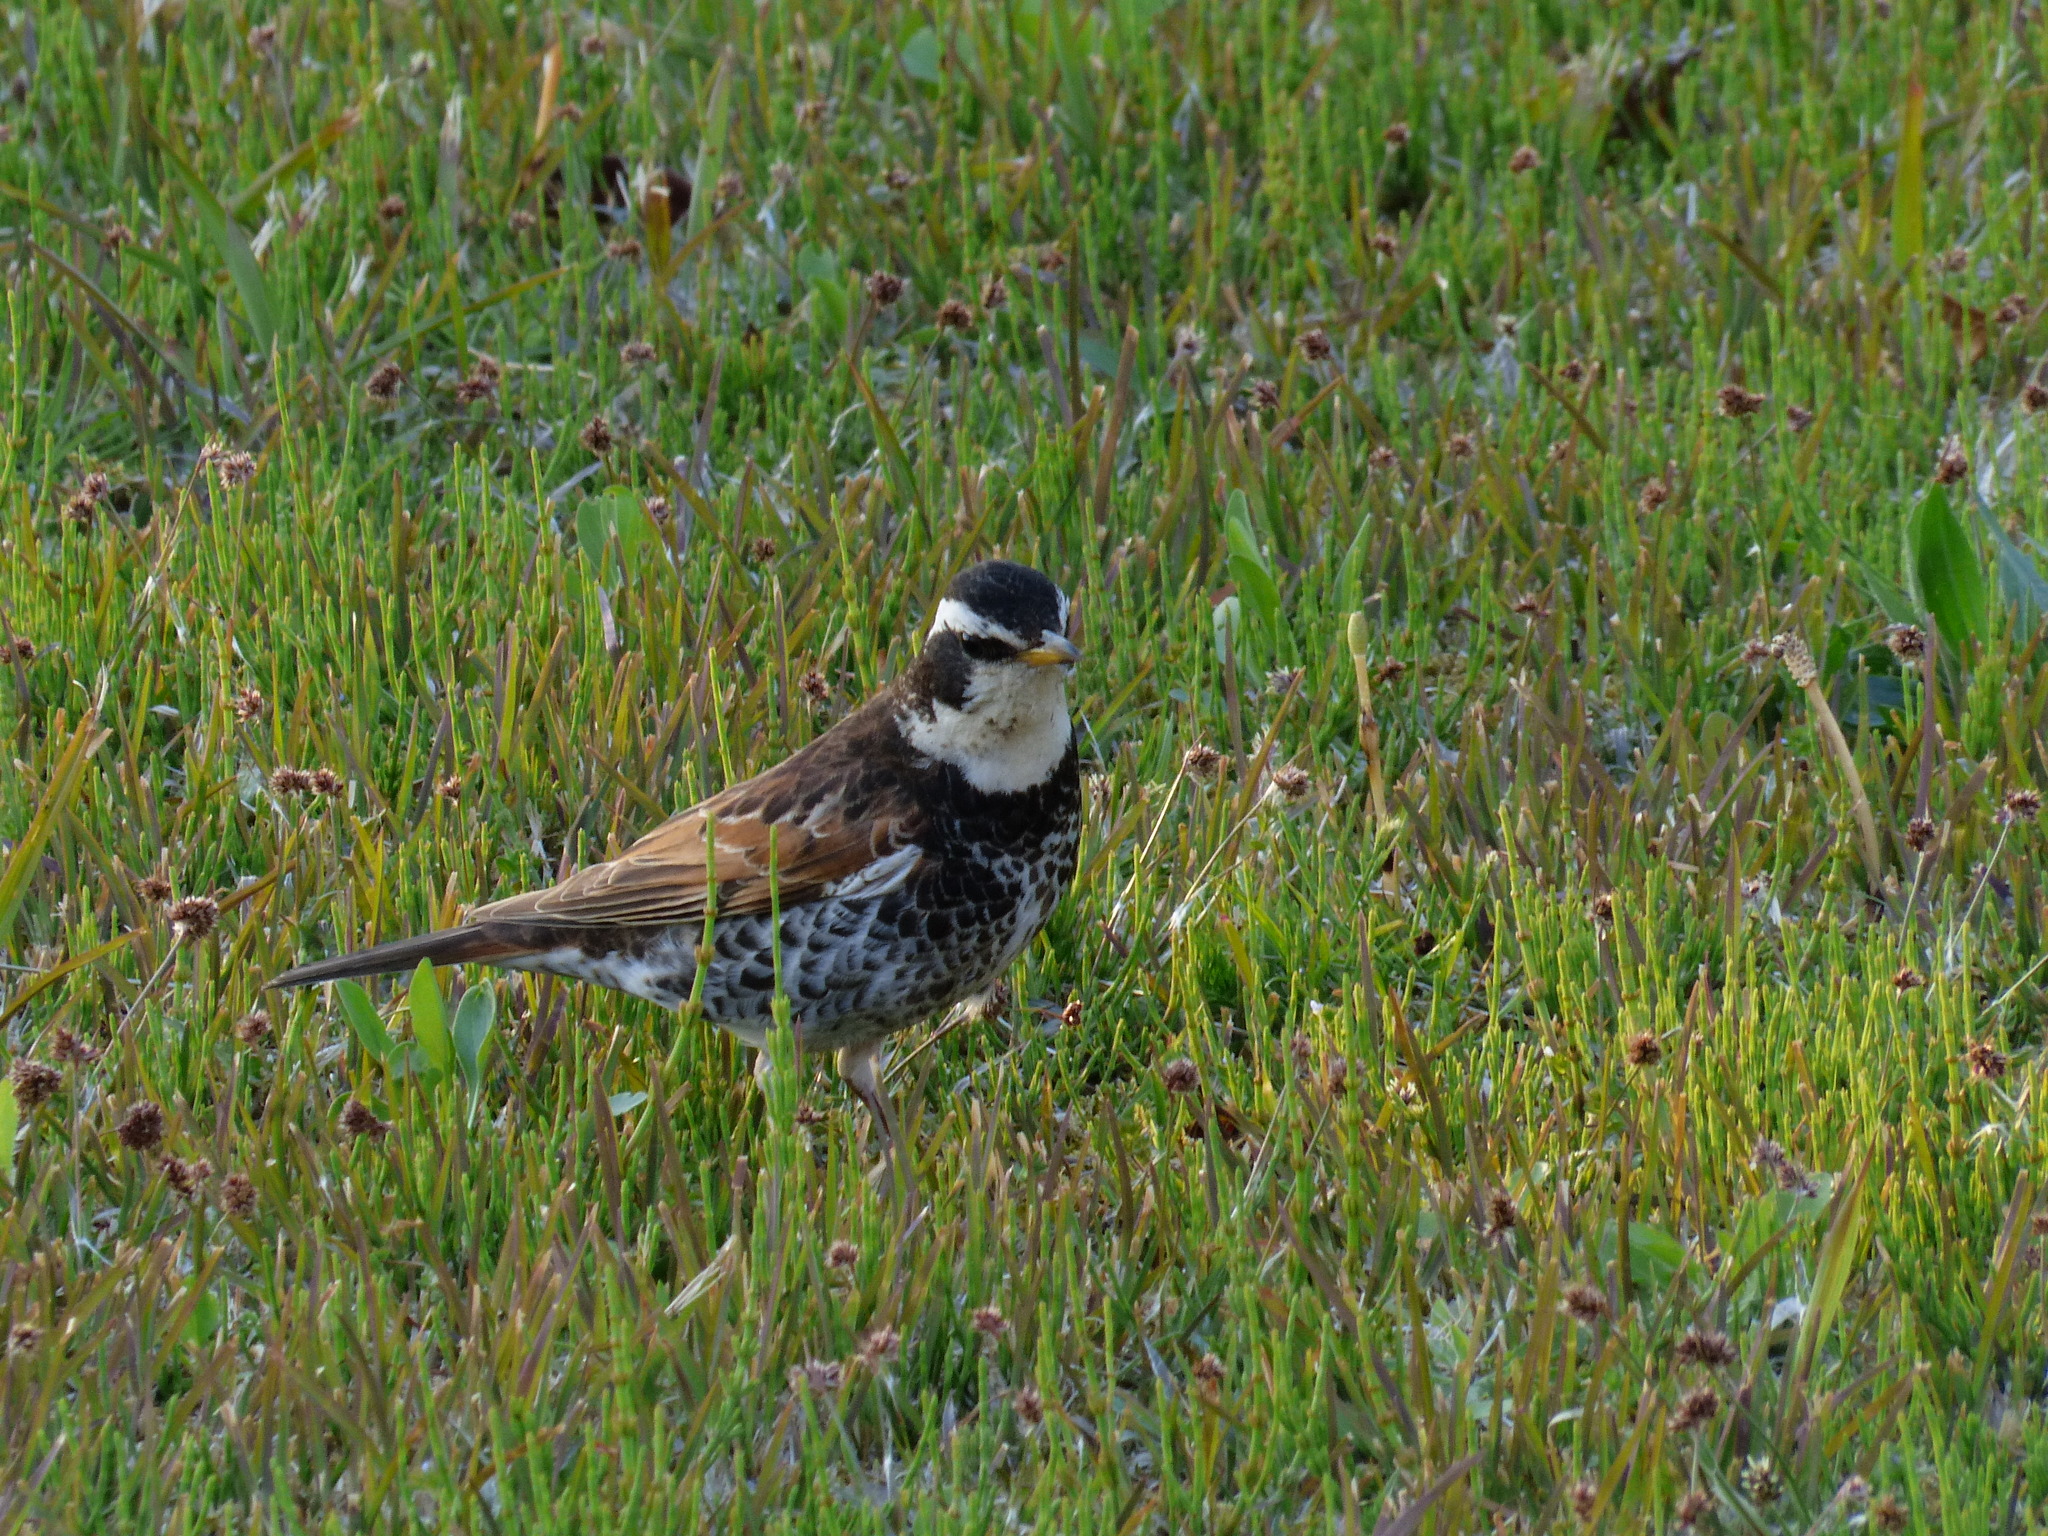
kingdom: Animalia
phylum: Chordata
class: Aves
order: Passeriformes
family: Turdidae
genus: Turdus
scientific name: Turdus eunomus
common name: Dusky thrush
